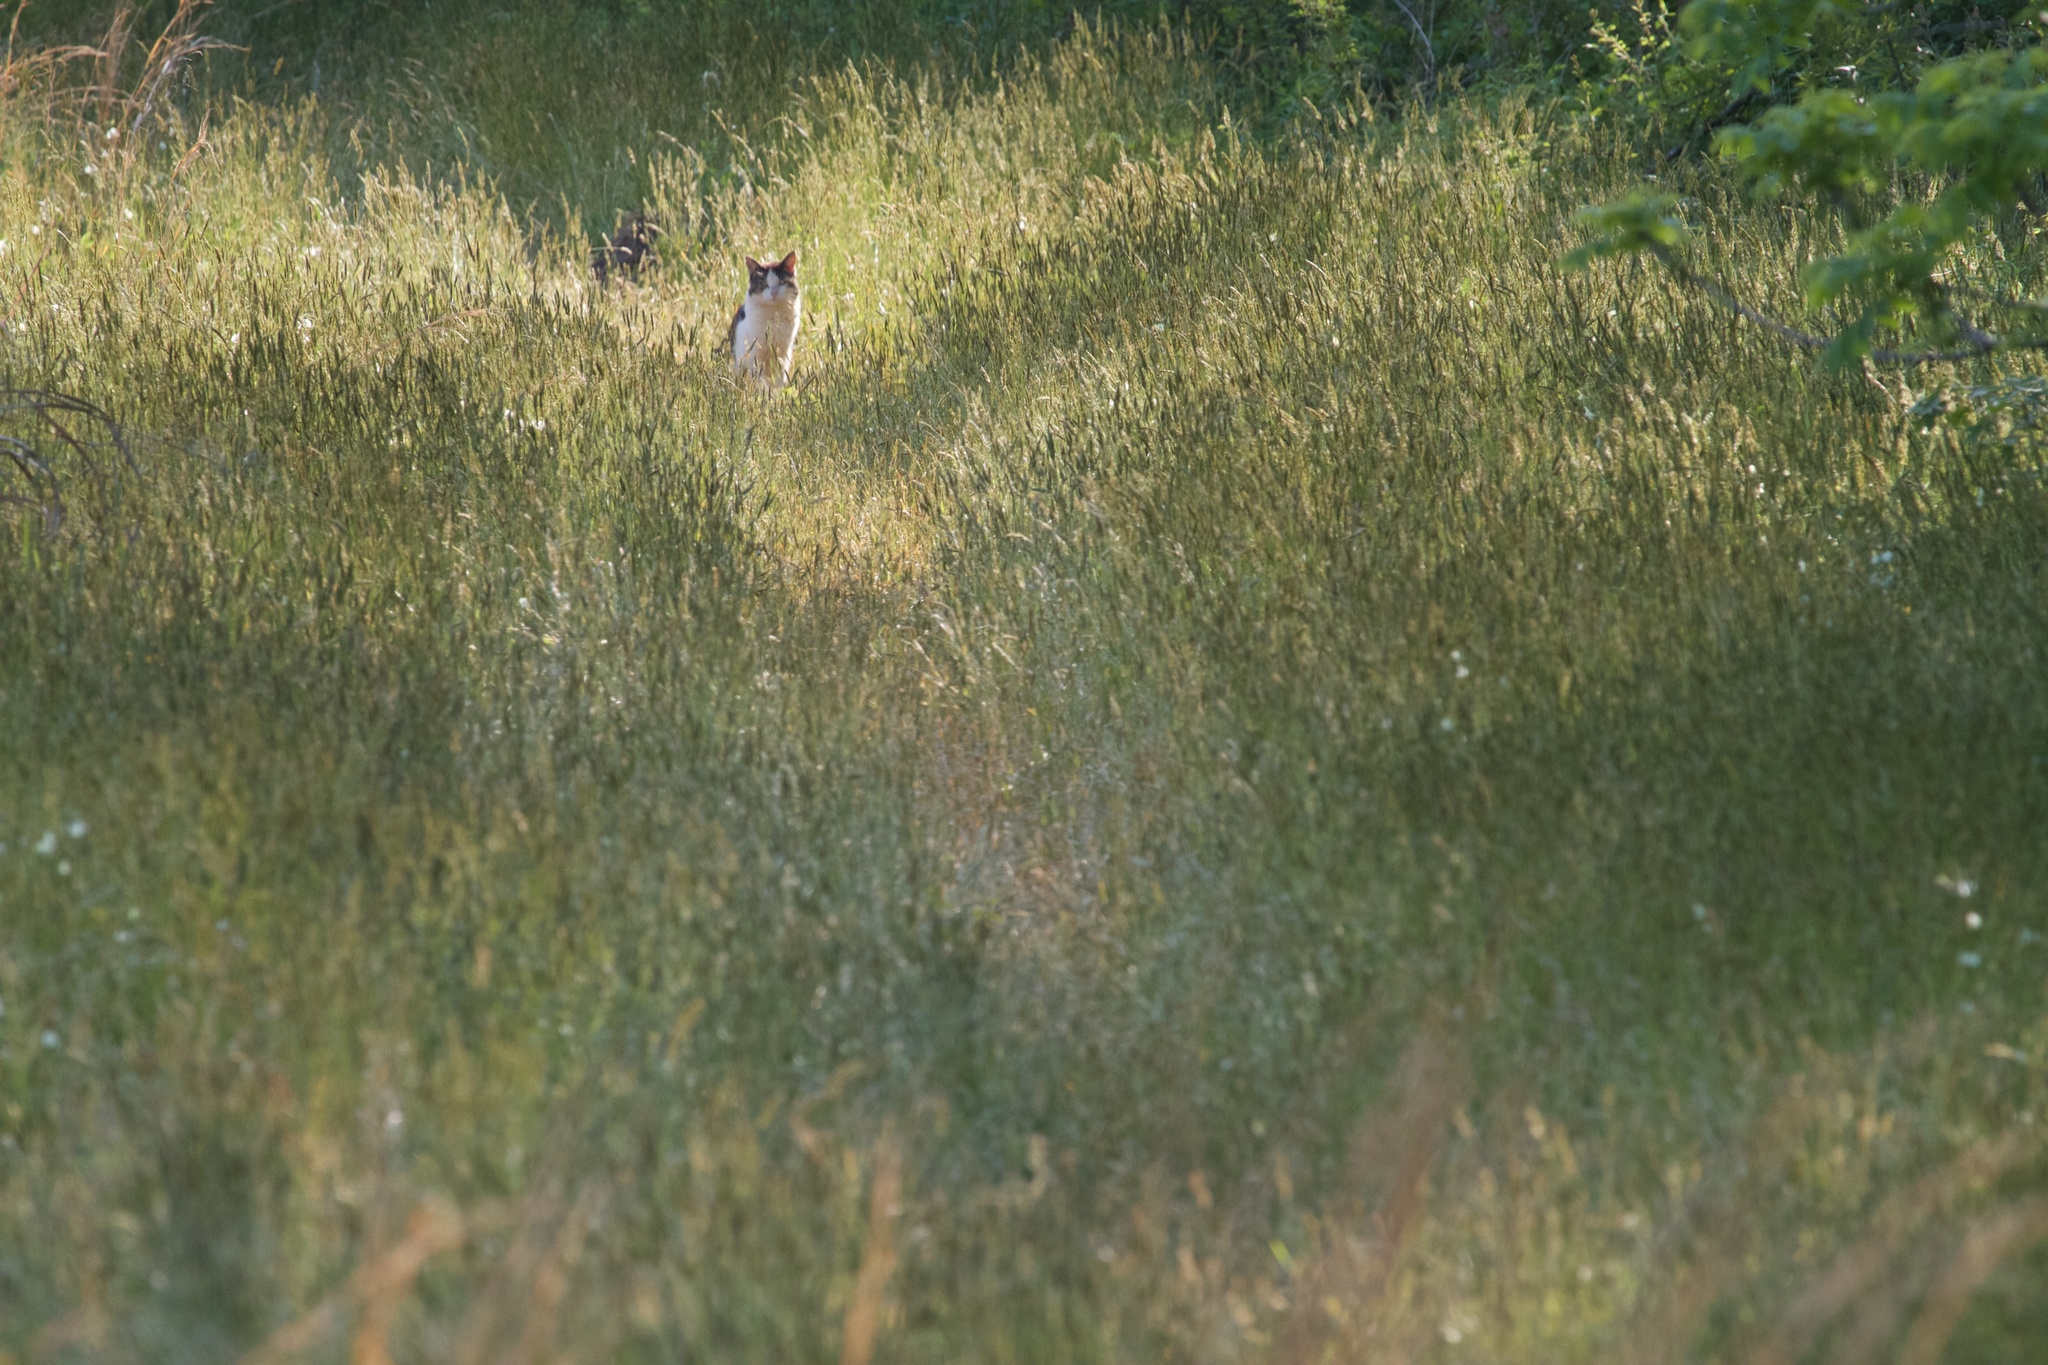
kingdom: Animalia
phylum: Chordata
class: Mammalia
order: Carnivora
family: Felidae
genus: Felis
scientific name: Felis catus
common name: Domestic cat
